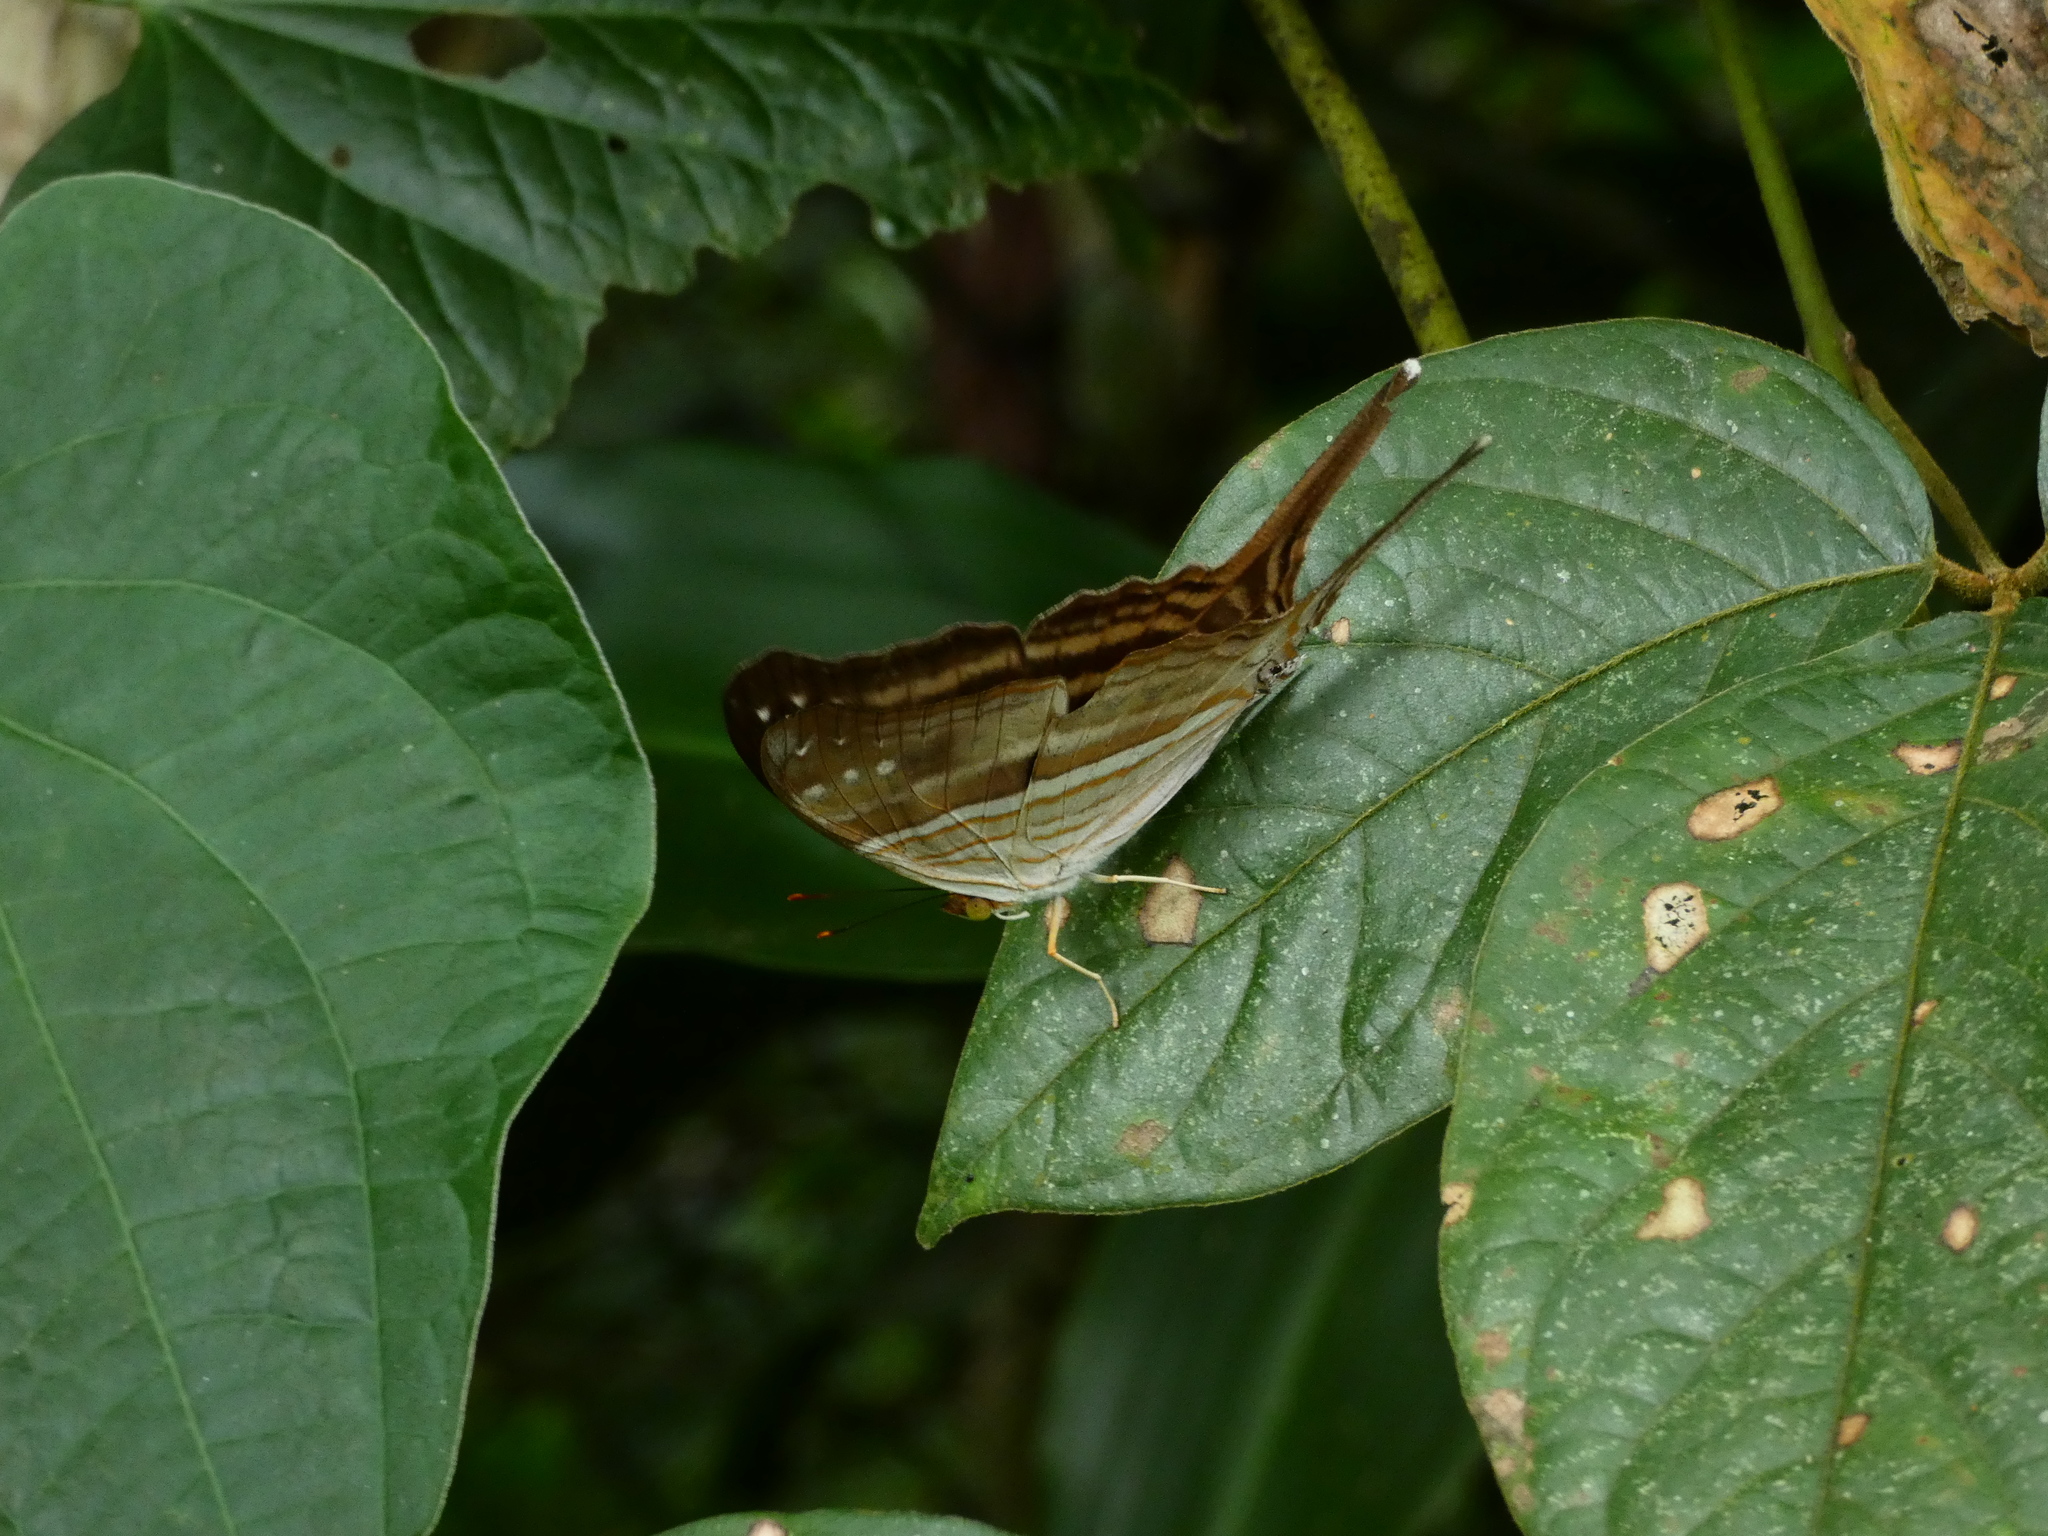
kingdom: Animalia
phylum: Arthropoda
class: Insecta
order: Lepidoptera
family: Nymphalidae
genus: Marpesia
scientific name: Marpesia chiron
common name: Many-banded daggerwing
